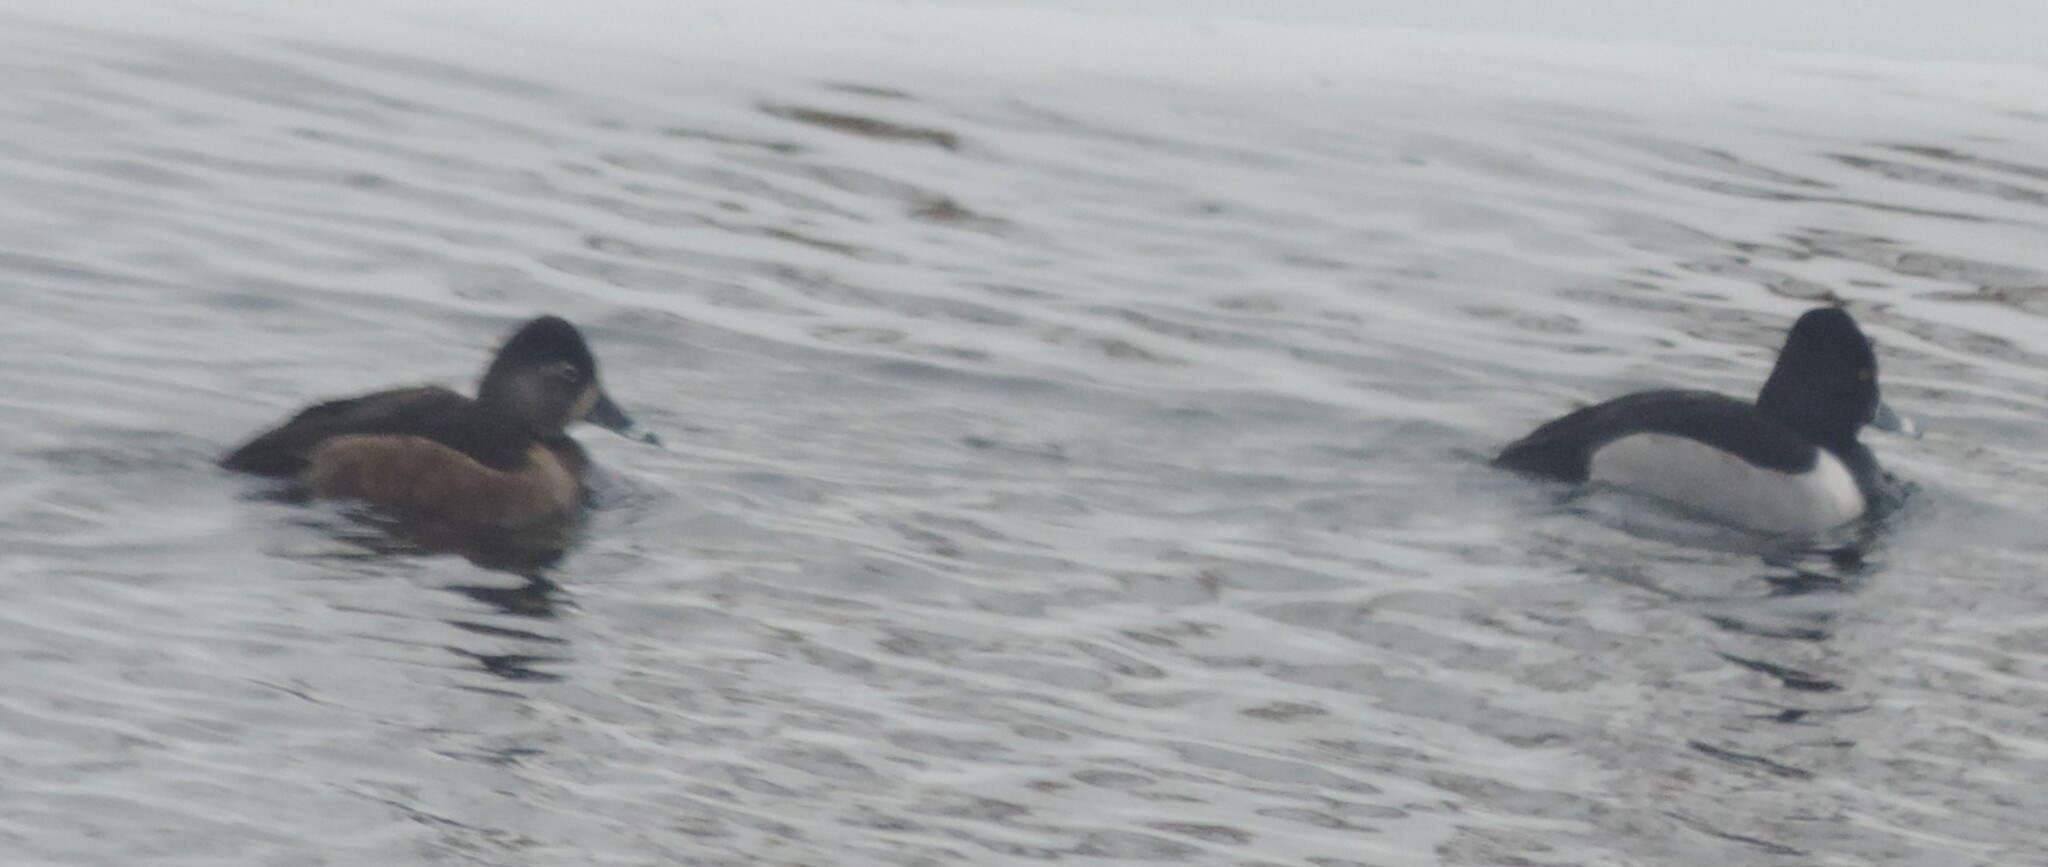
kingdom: Animalia
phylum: Chordata
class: Aves
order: Anseriformes
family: Anatidae
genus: Aythya
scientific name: Aythya collaris
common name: Ring-necked duck
